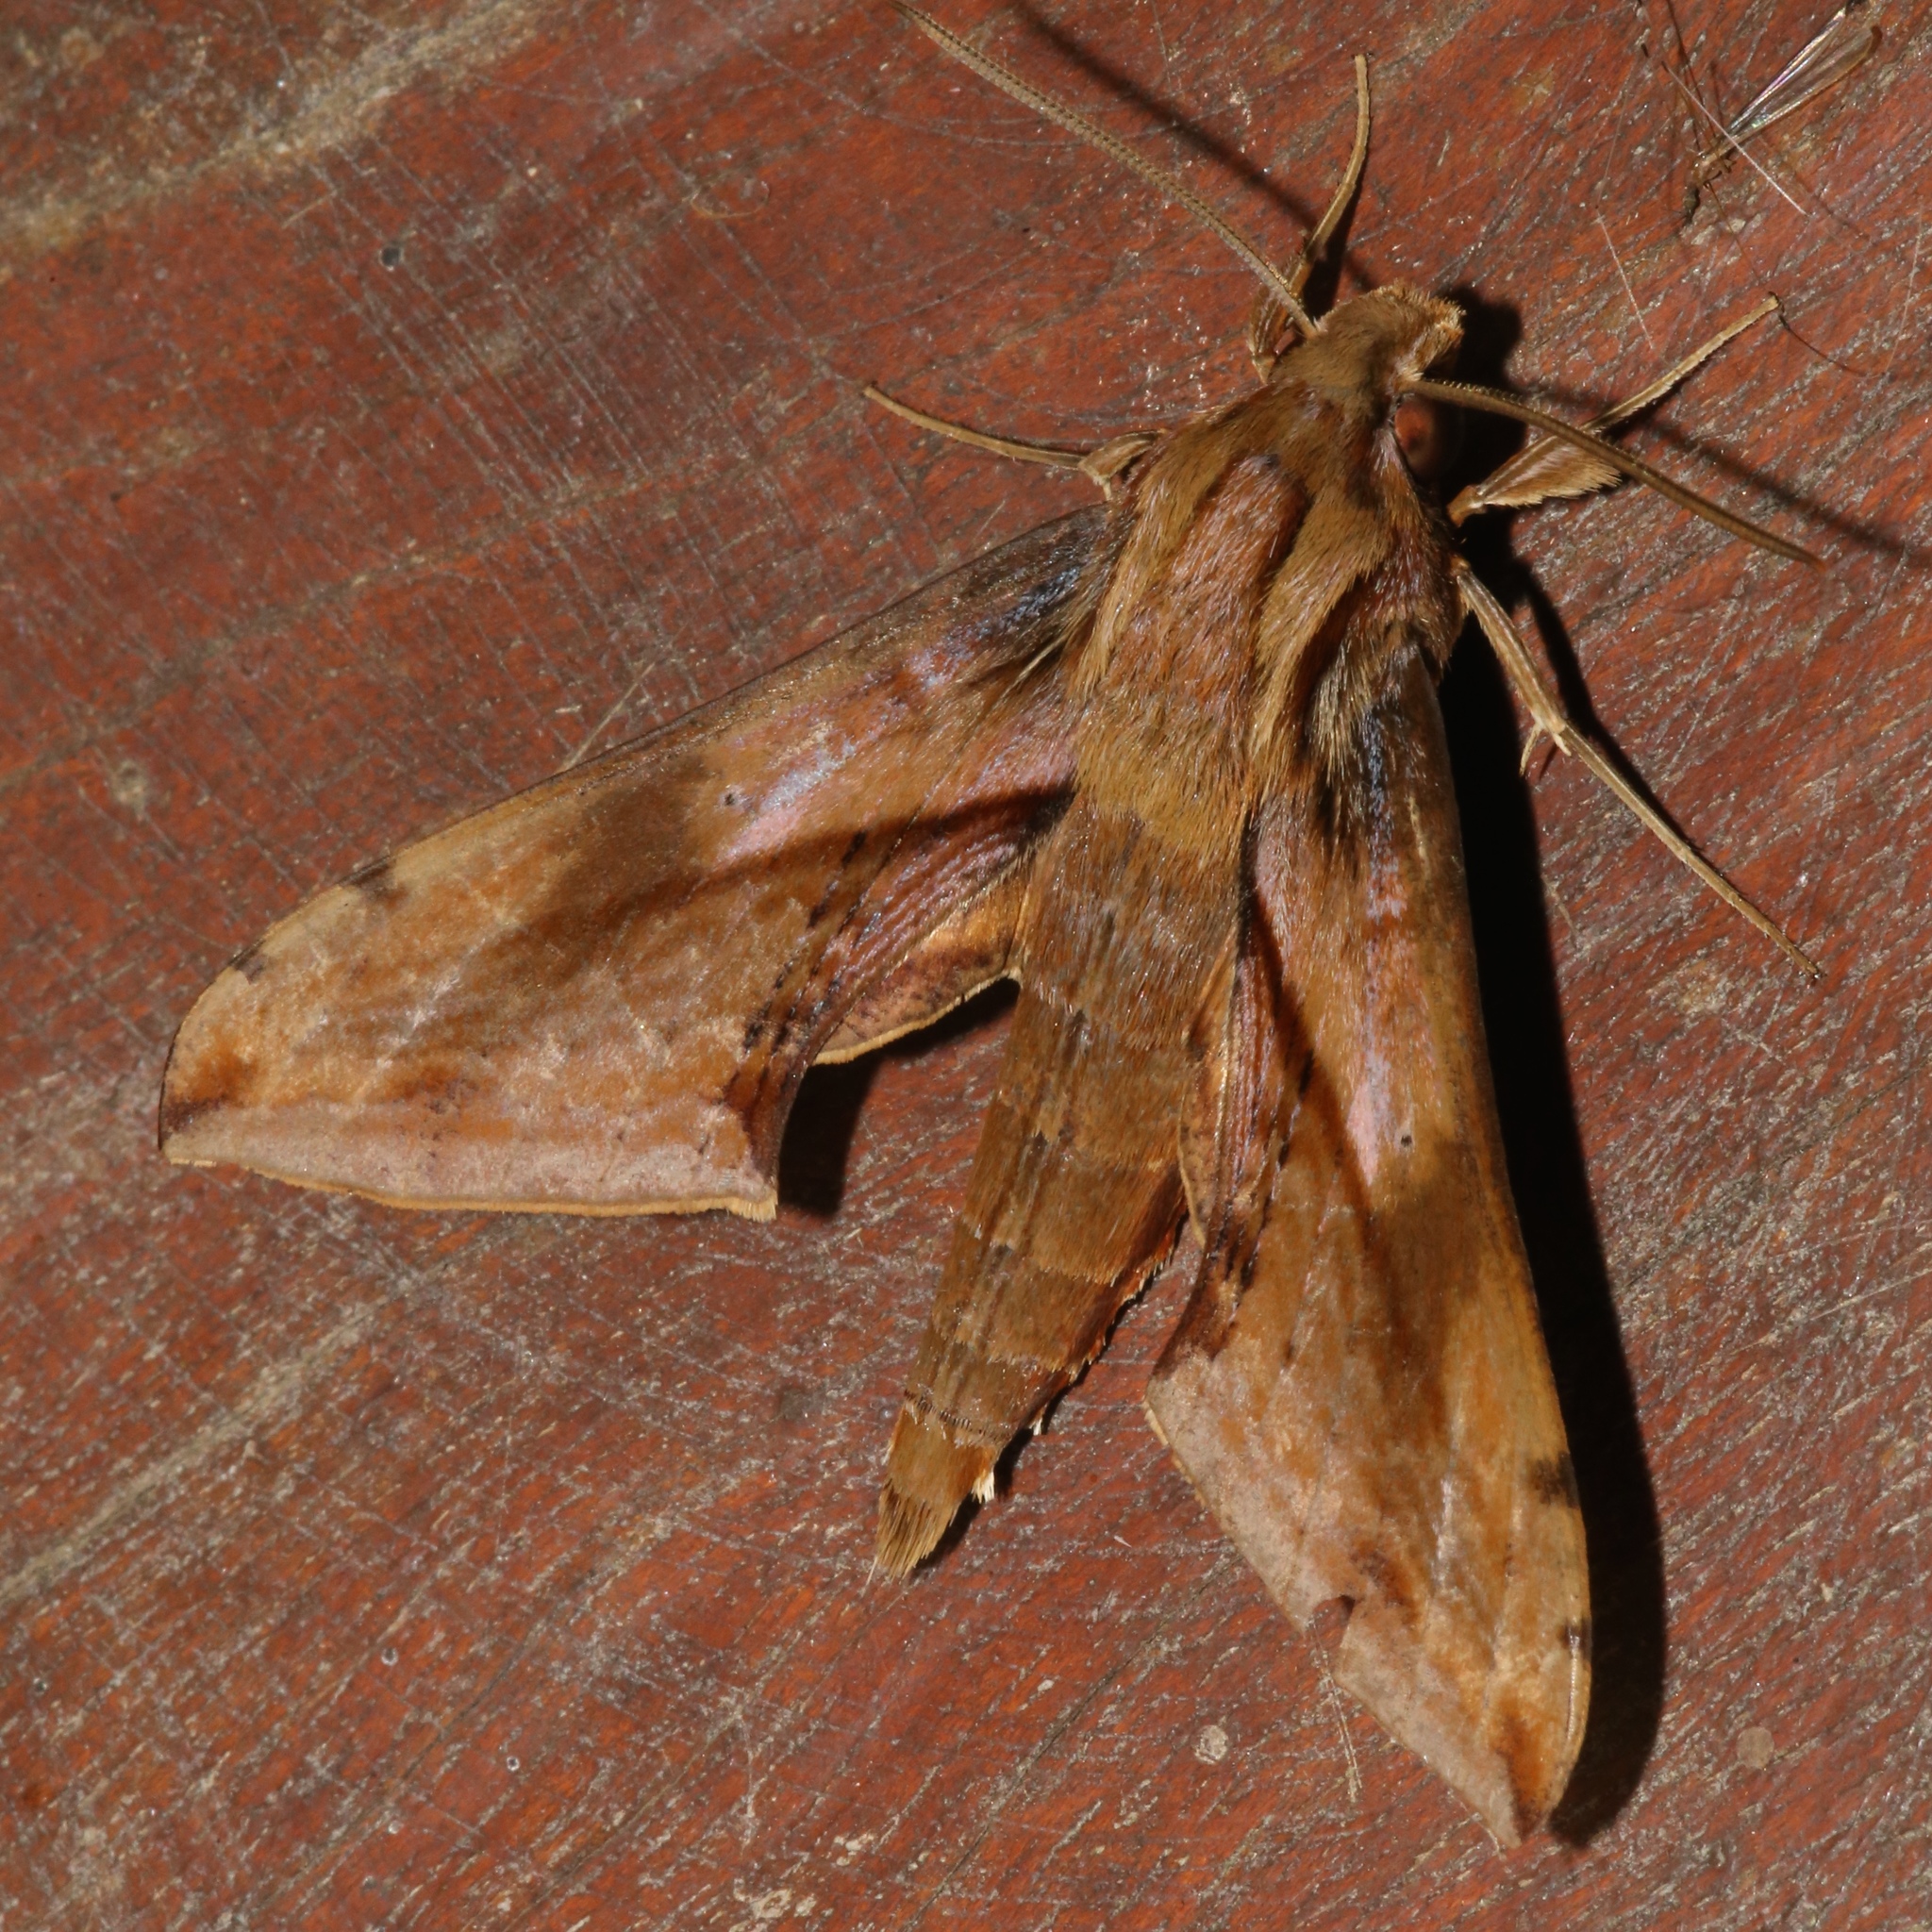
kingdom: Animalia
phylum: Arthropoda
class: Insecta
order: Lepidoptera
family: Sphingidae
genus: Xylophanes
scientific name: Xylophanes rhodina
